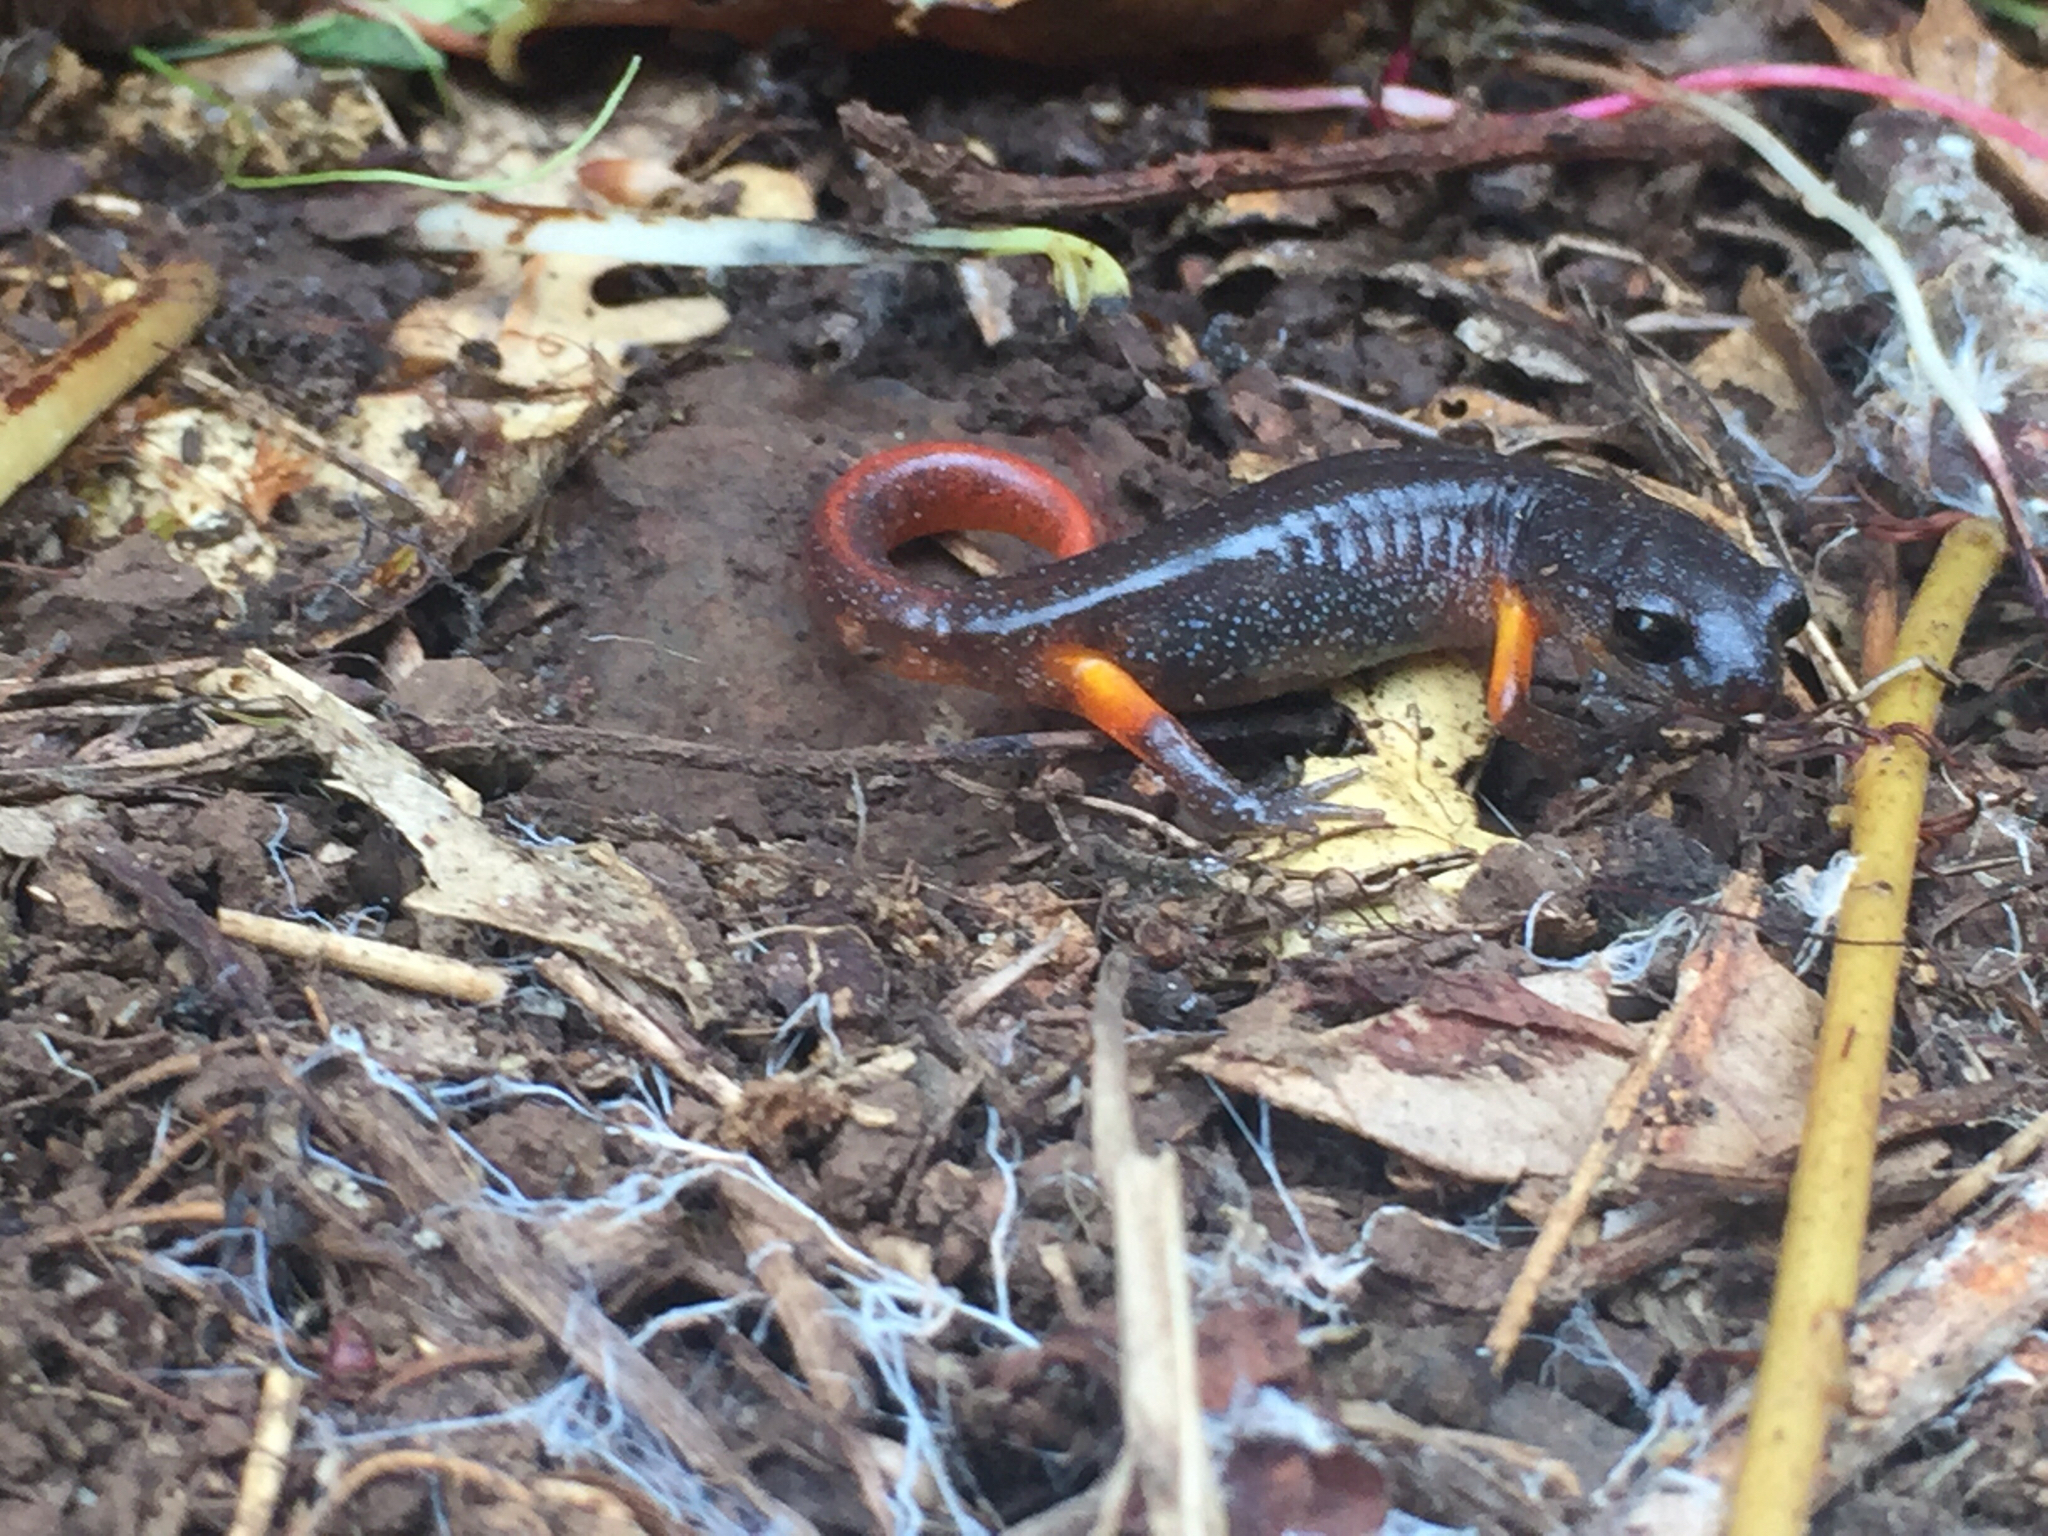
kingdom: Animalia
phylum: Chordata
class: Amphibia
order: Caudata
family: Plethodontidae
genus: Ensatina
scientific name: Ensatina eschscholtzii
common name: Ensatina
